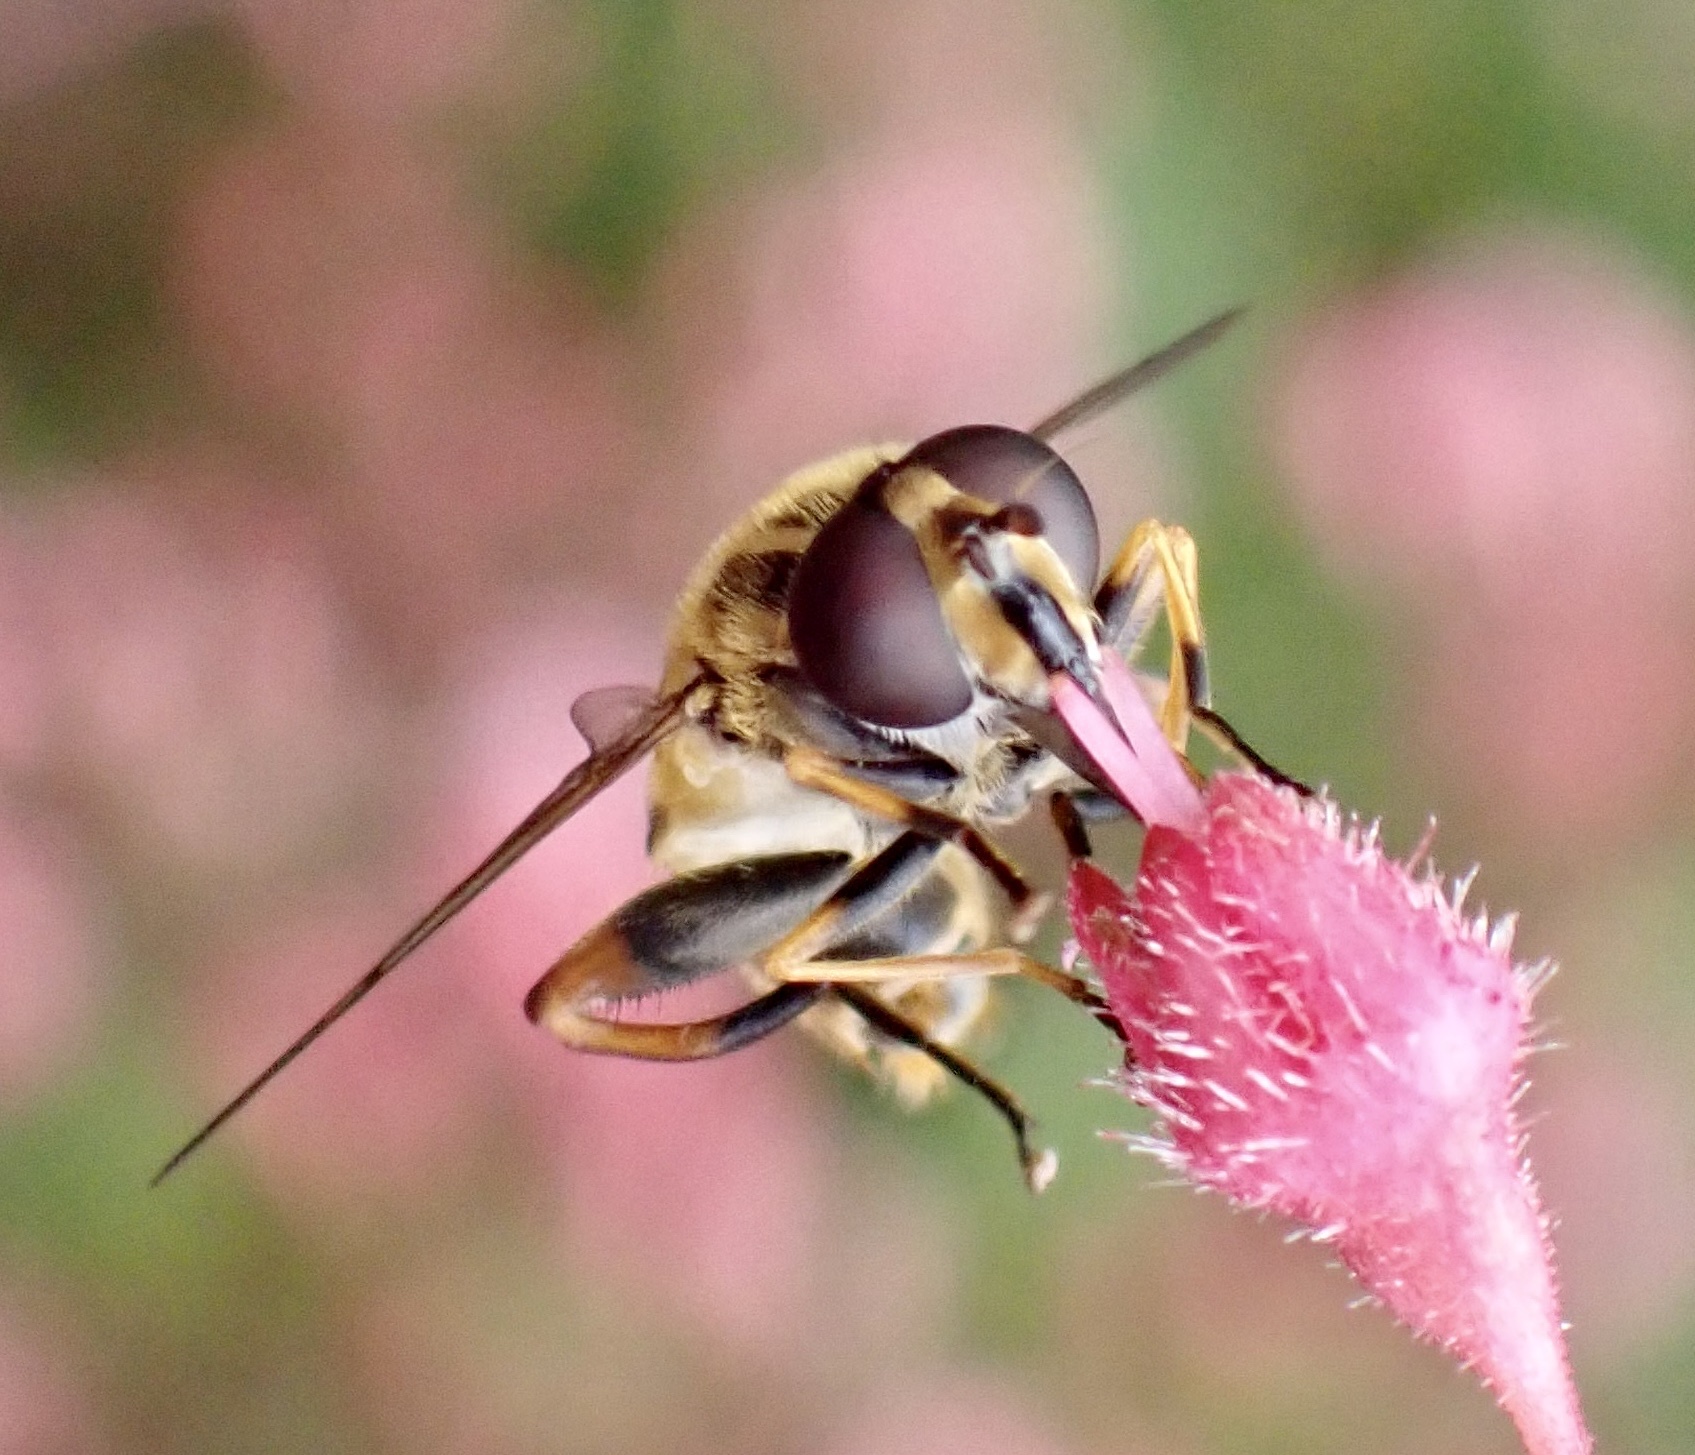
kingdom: Animalia
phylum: Arthropoda
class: Insecta
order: Diptera
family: Syrphidae
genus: Helophilus
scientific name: Helophilus pendulus
